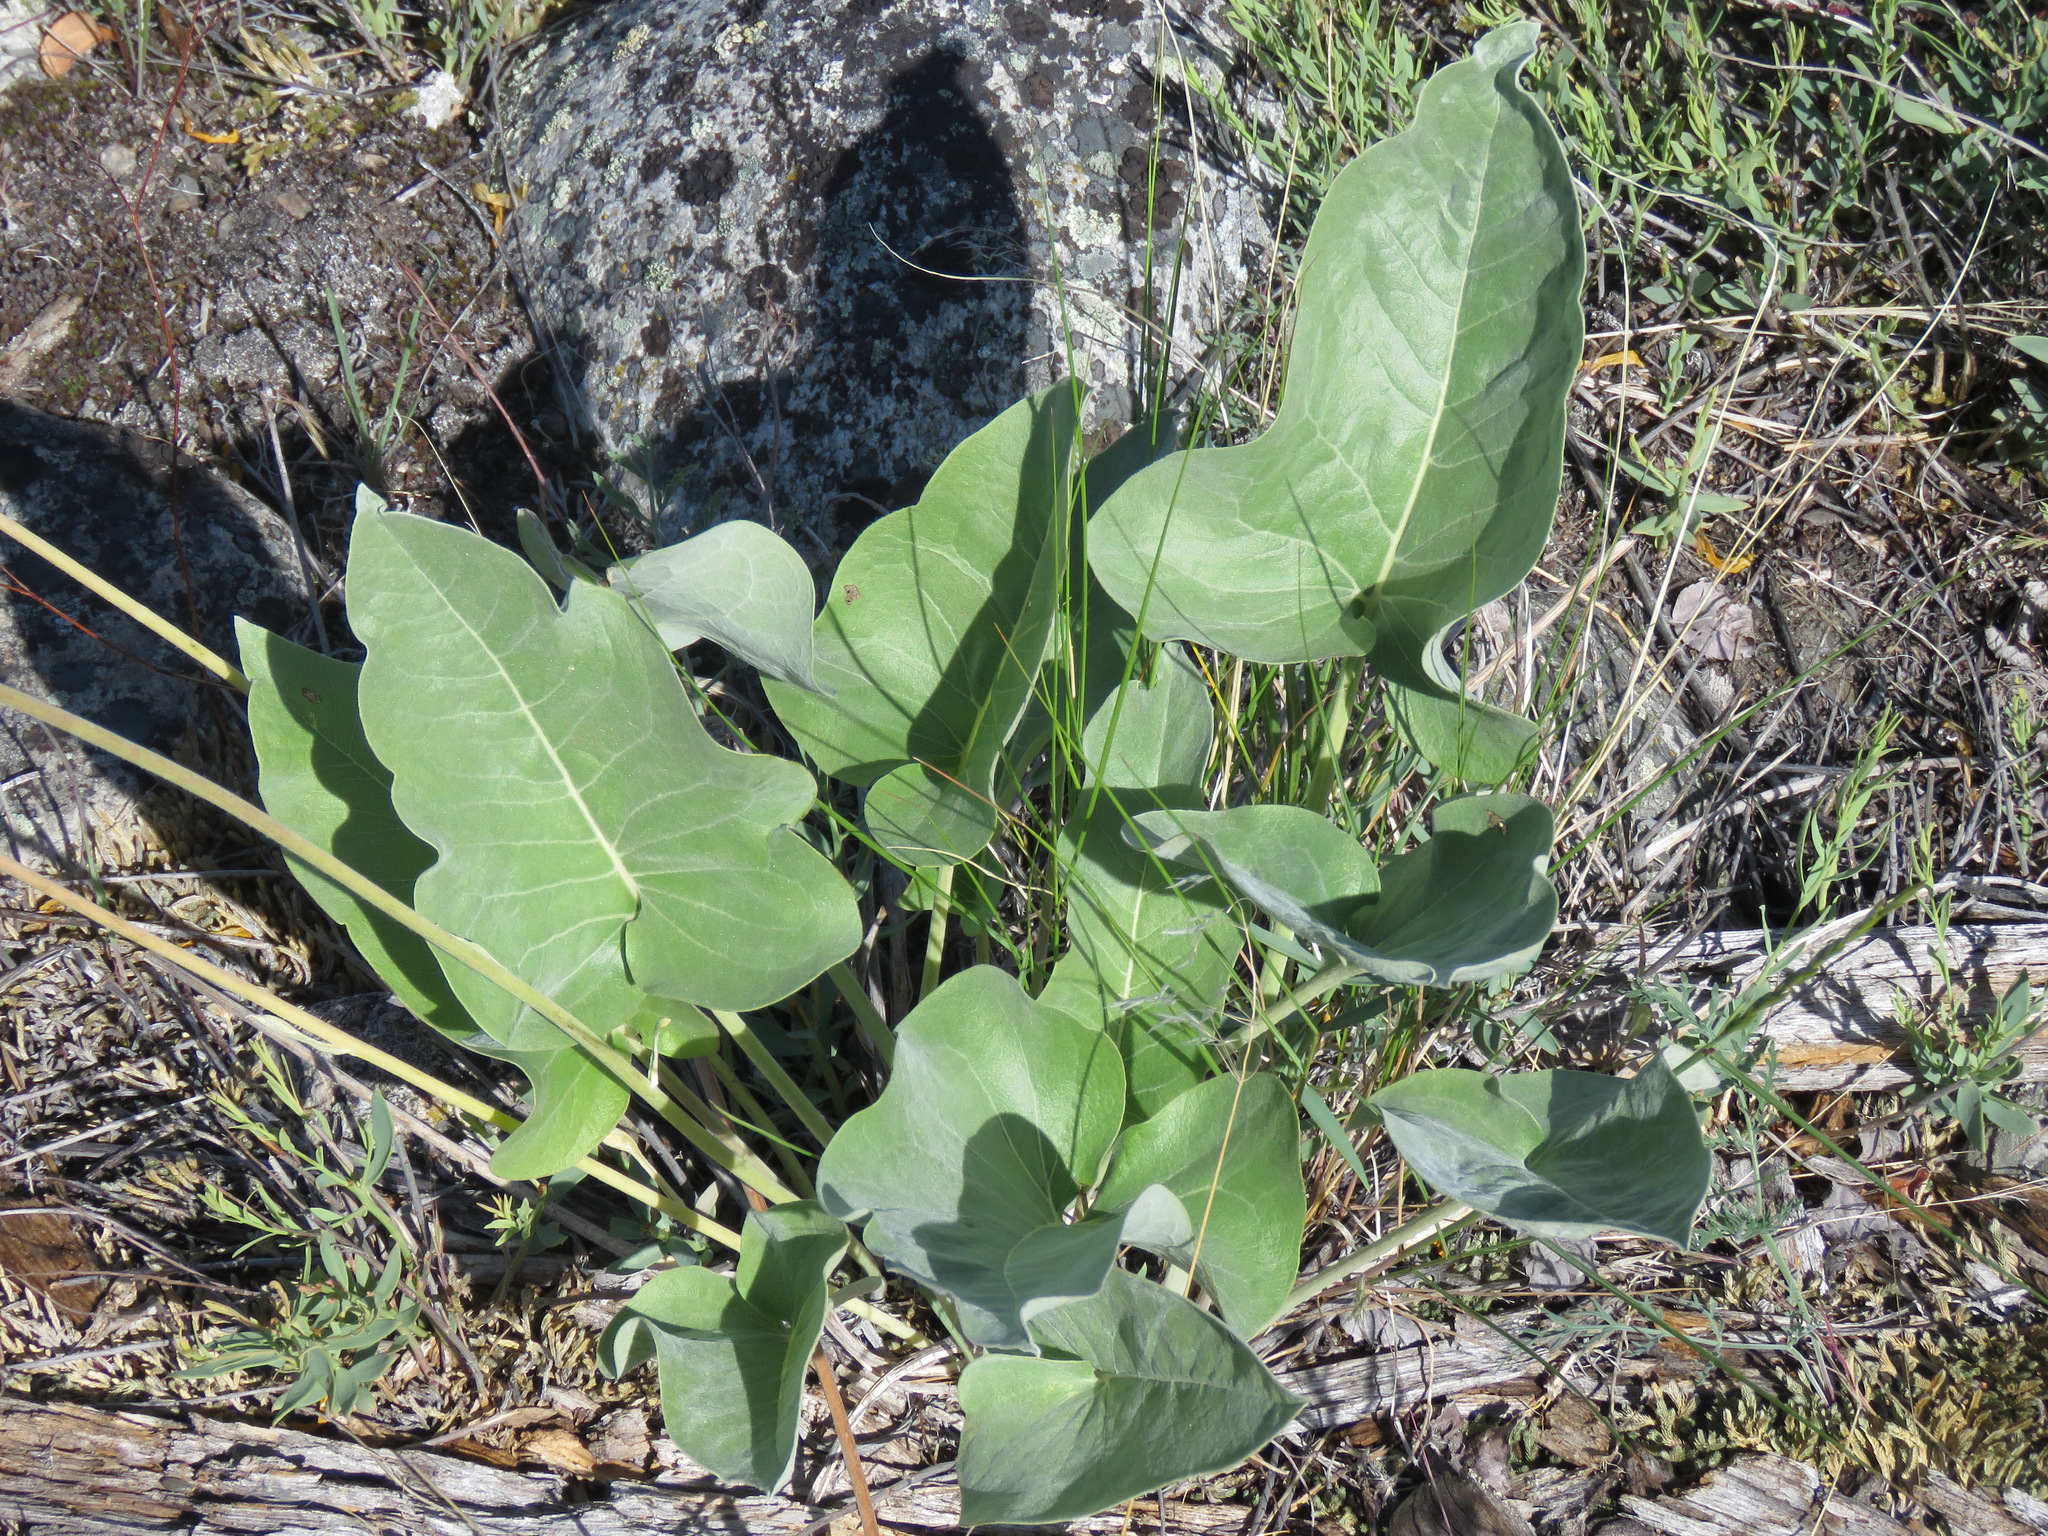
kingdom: Plantae
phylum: Tracheophyta
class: Magnoliopsida
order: Asterales
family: Asteraceae
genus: Wyethia
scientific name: Wyethia sagittata
